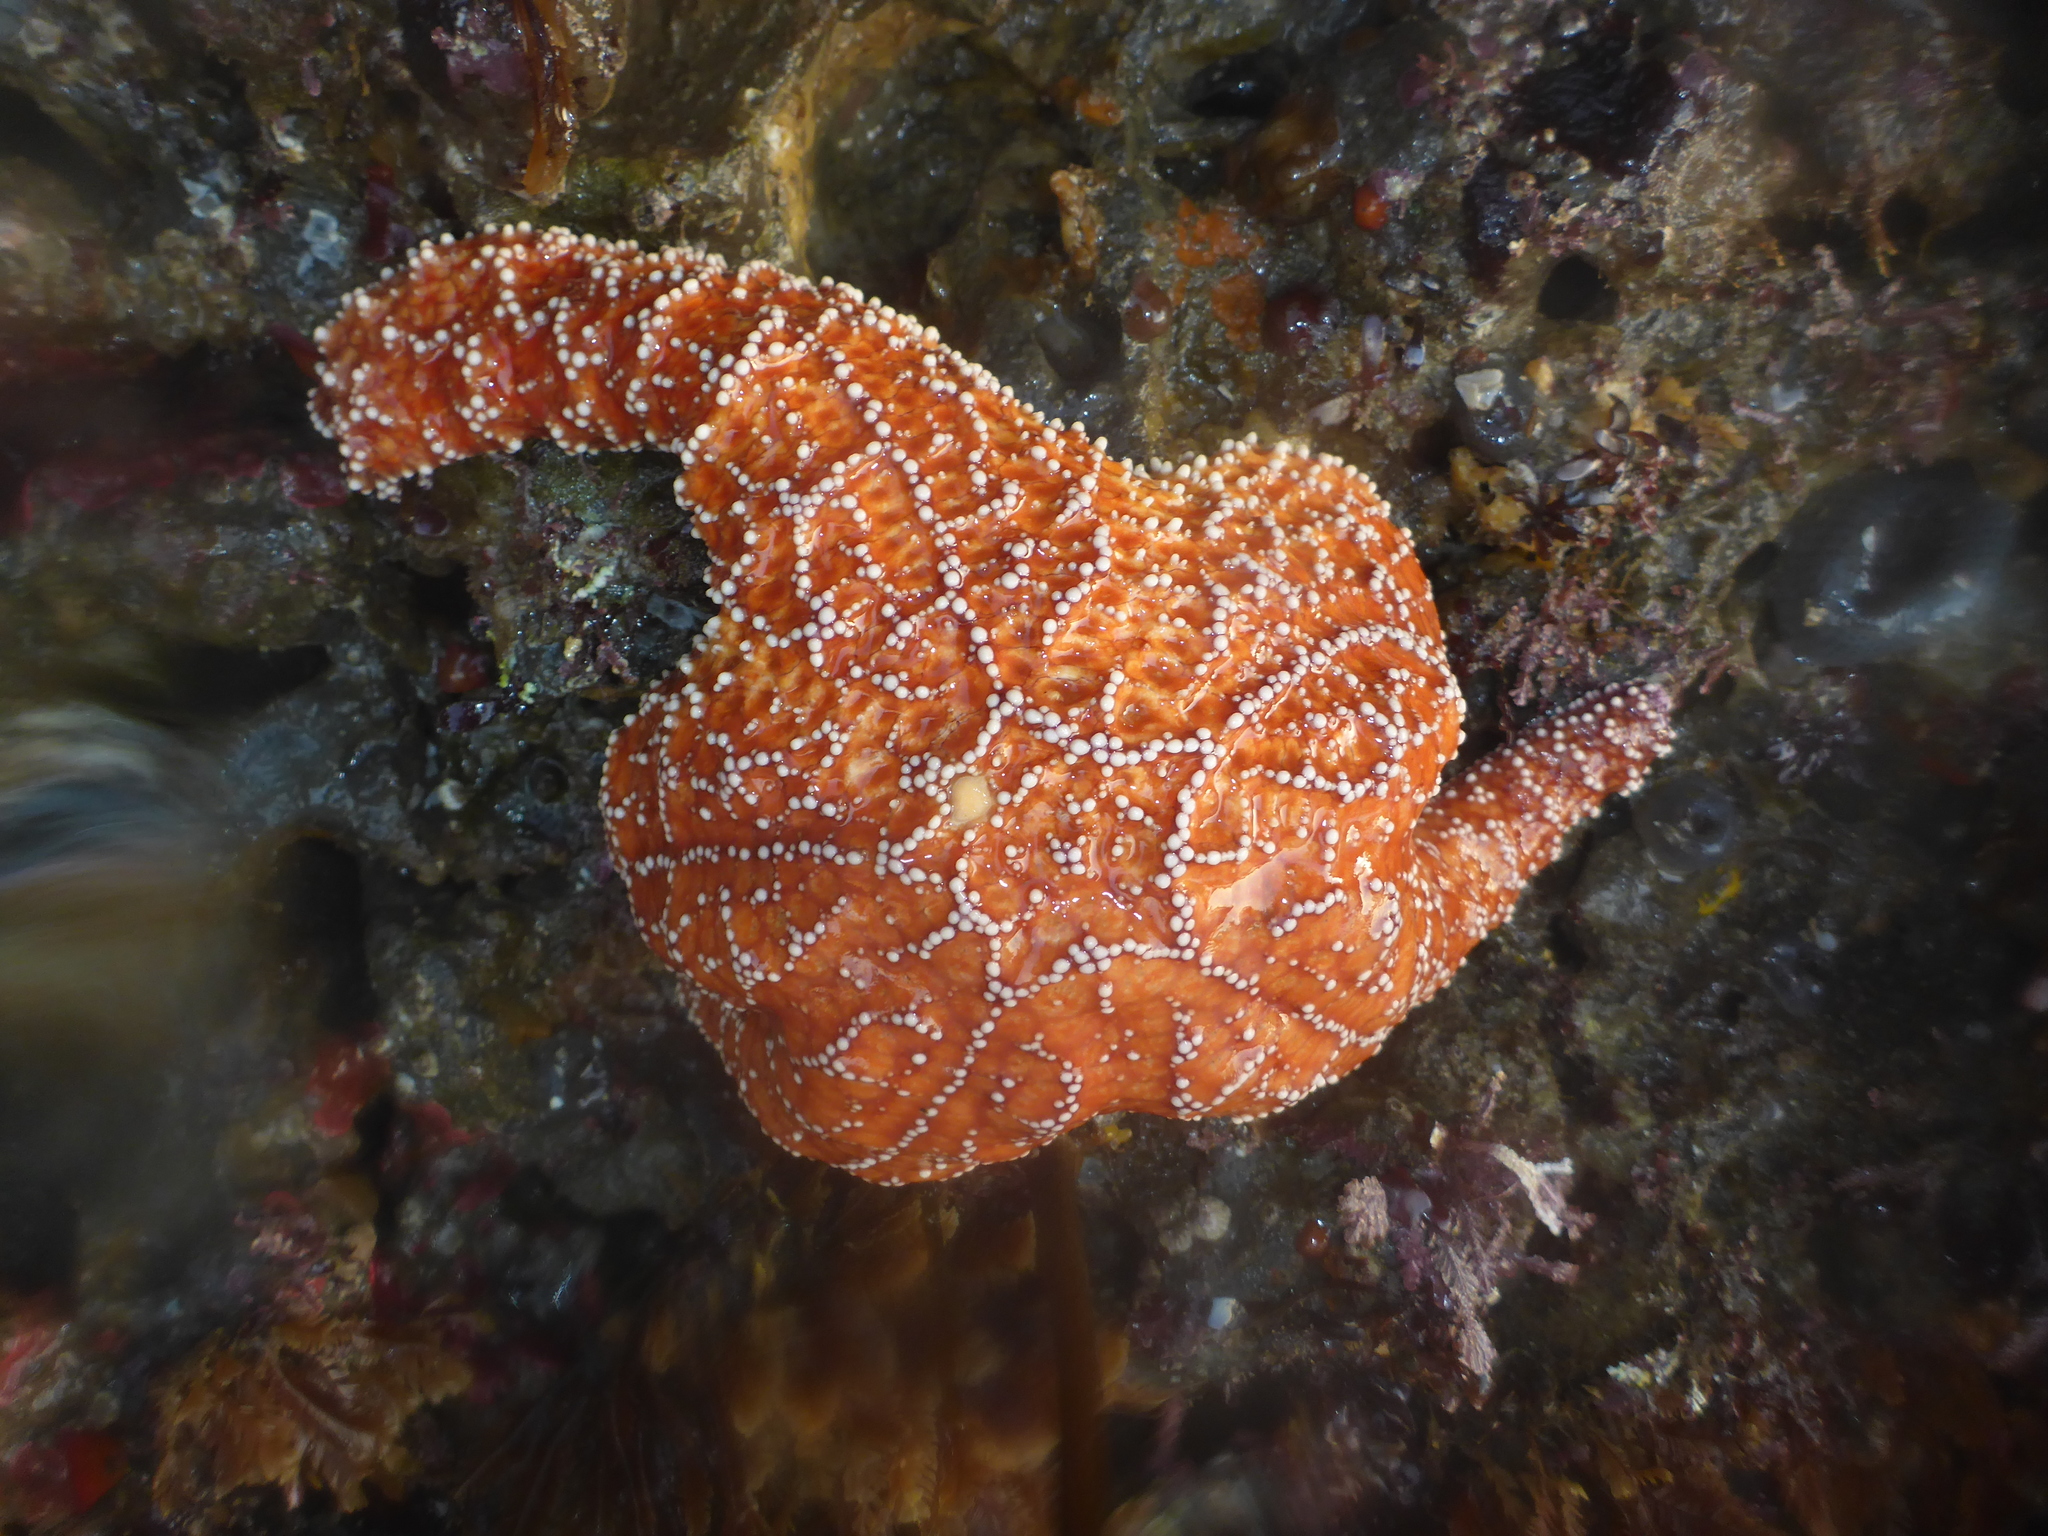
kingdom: Animalia
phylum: Echinodermata
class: Asteroidea
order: Forcipulatida
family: Asteriidae
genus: Pisaster
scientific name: Pisaster ochraceus
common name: Ochre stars
